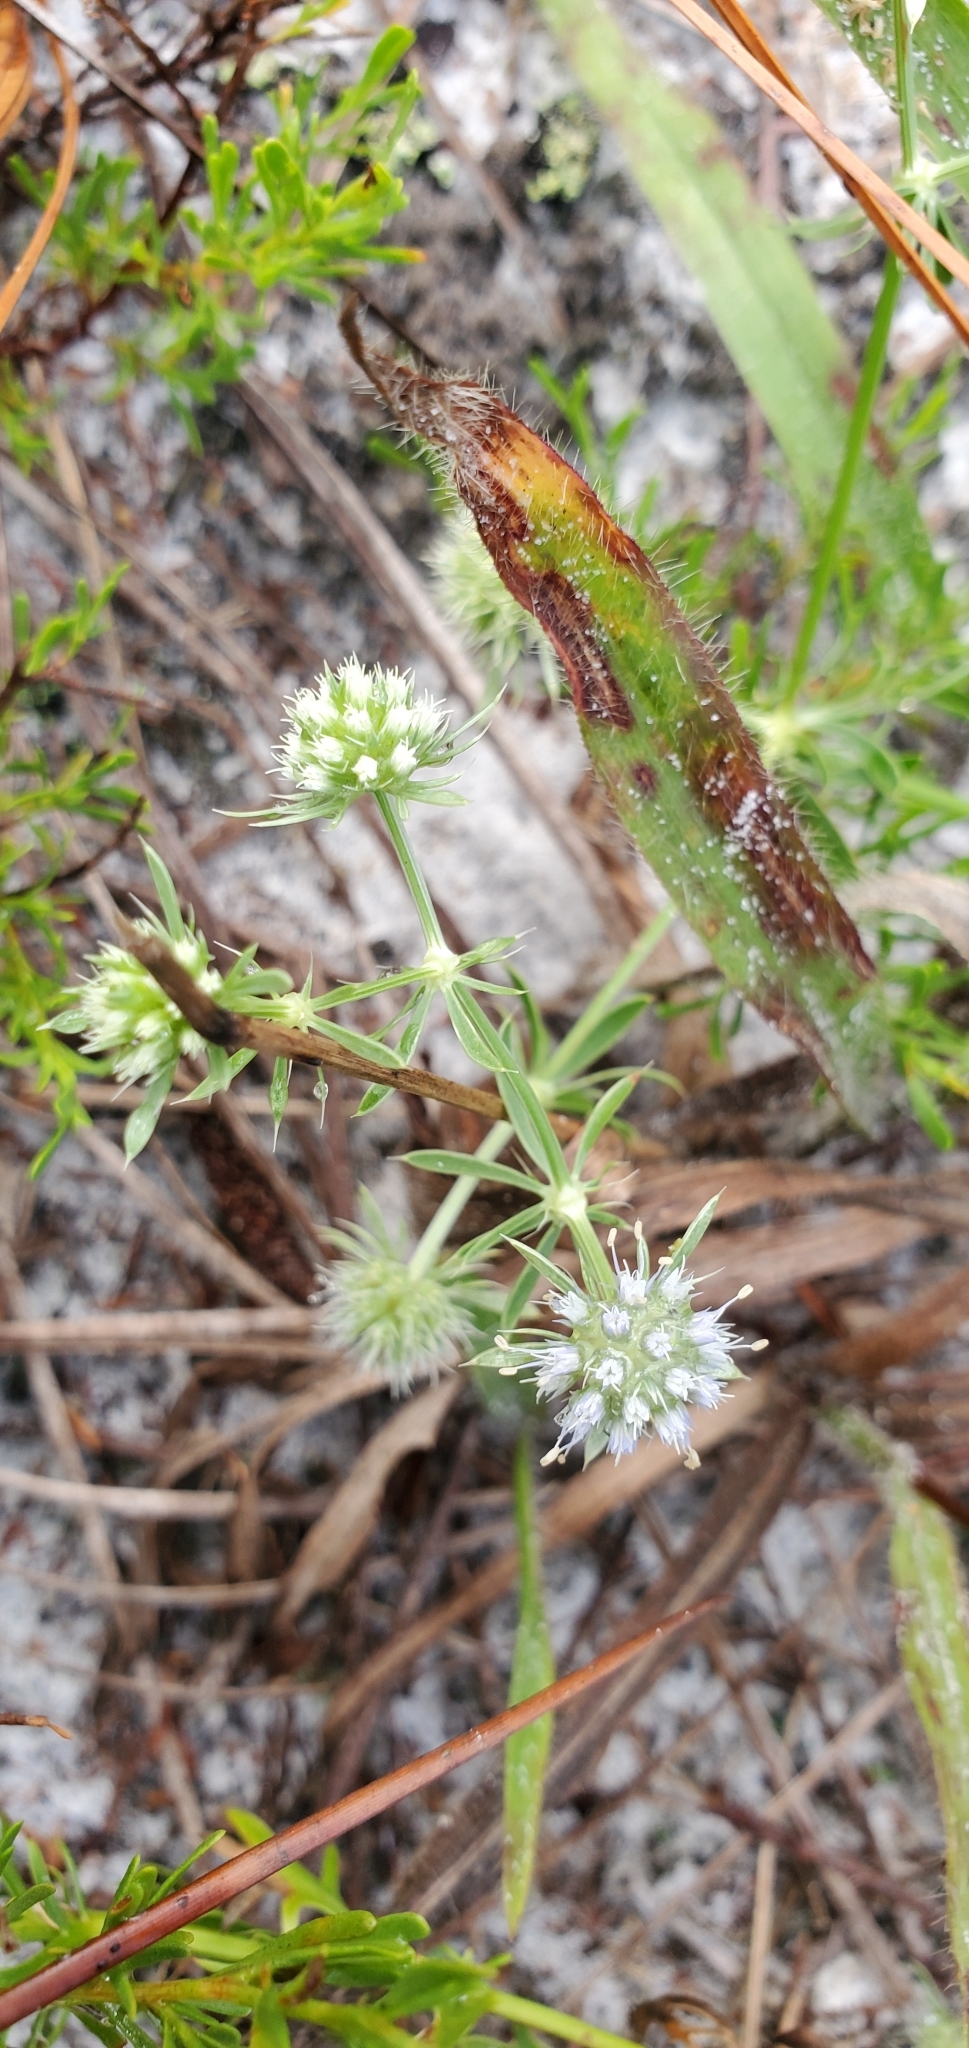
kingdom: Plantae
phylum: Tracheophyta
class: Magnoliopsida
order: Apiales
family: Apiaceae
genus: Eryngium
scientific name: Eryngium aromaticum
